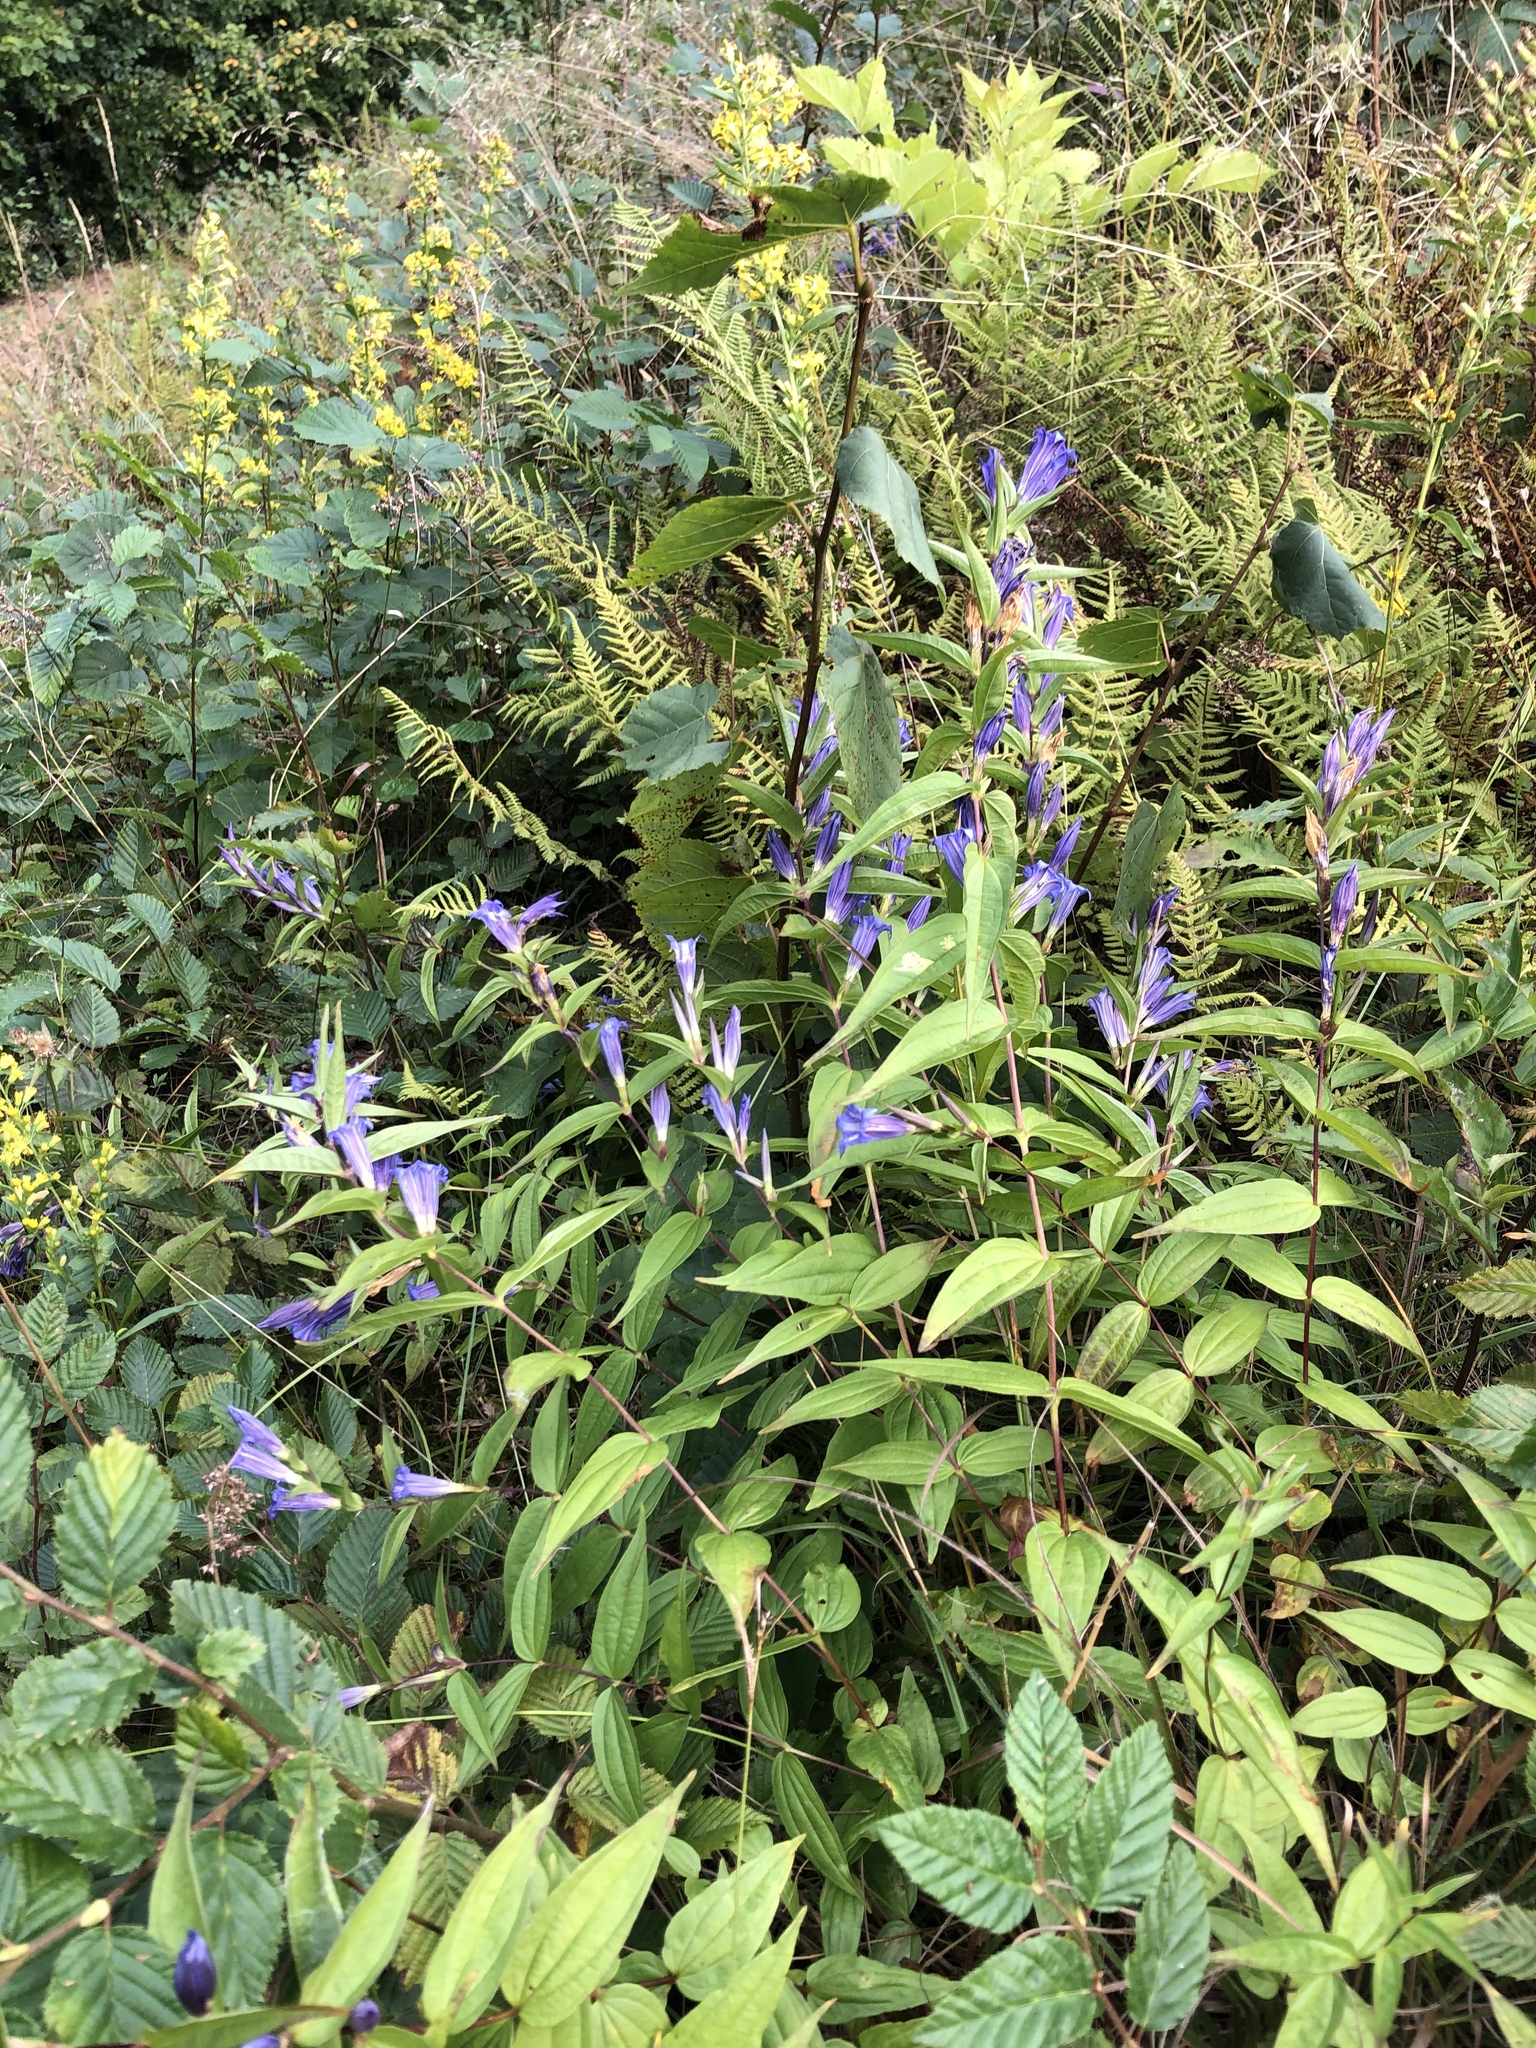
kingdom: Plantae
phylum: Tracheophyta
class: Magnoliopsida
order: Gentianales
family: Gentianaceae
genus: Gentiana
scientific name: Gentiana asclepiadea
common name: Willow gentian
